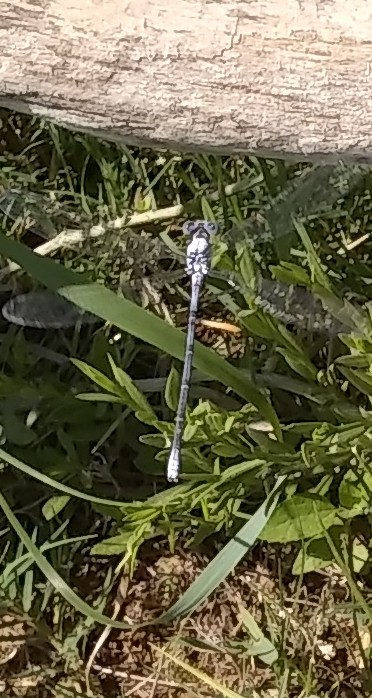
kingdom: Animalia
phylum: Arthropoda
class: Insecta
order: Odonata
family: Coenagrionidae
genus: Argia
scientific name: Argia moesta
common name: Powdered dancer
